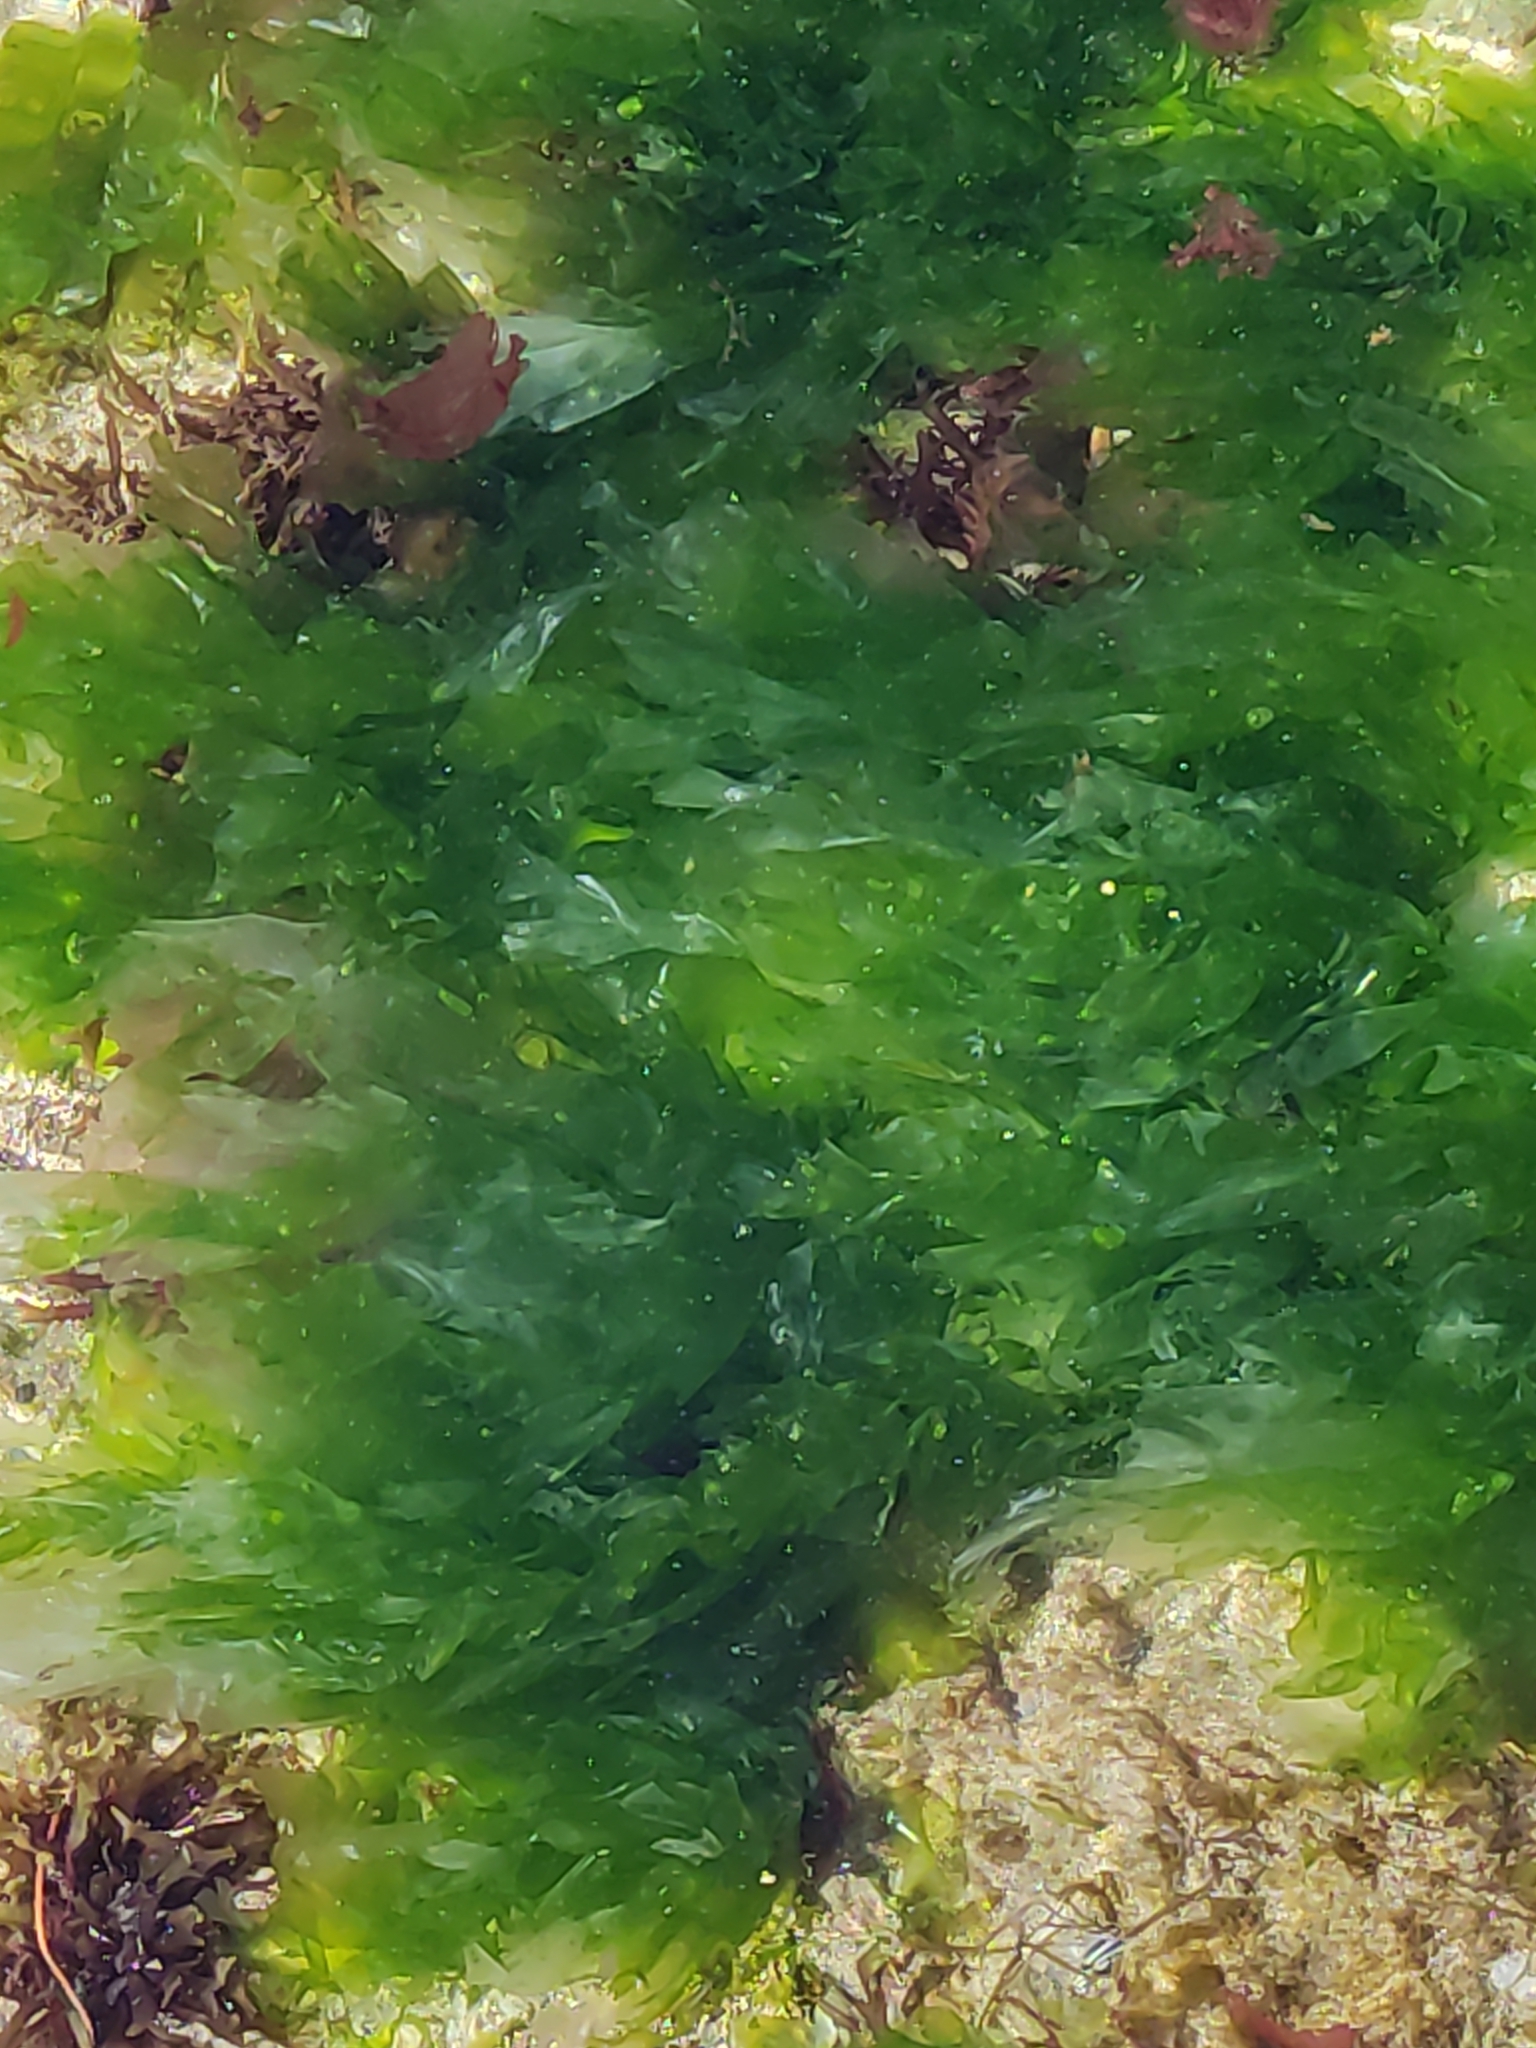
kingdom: Plantae
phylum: Chlorophyta
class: Ulvophyceae
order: Ulvales
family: Ulvaceae
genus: Ulva
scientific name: Ulva
